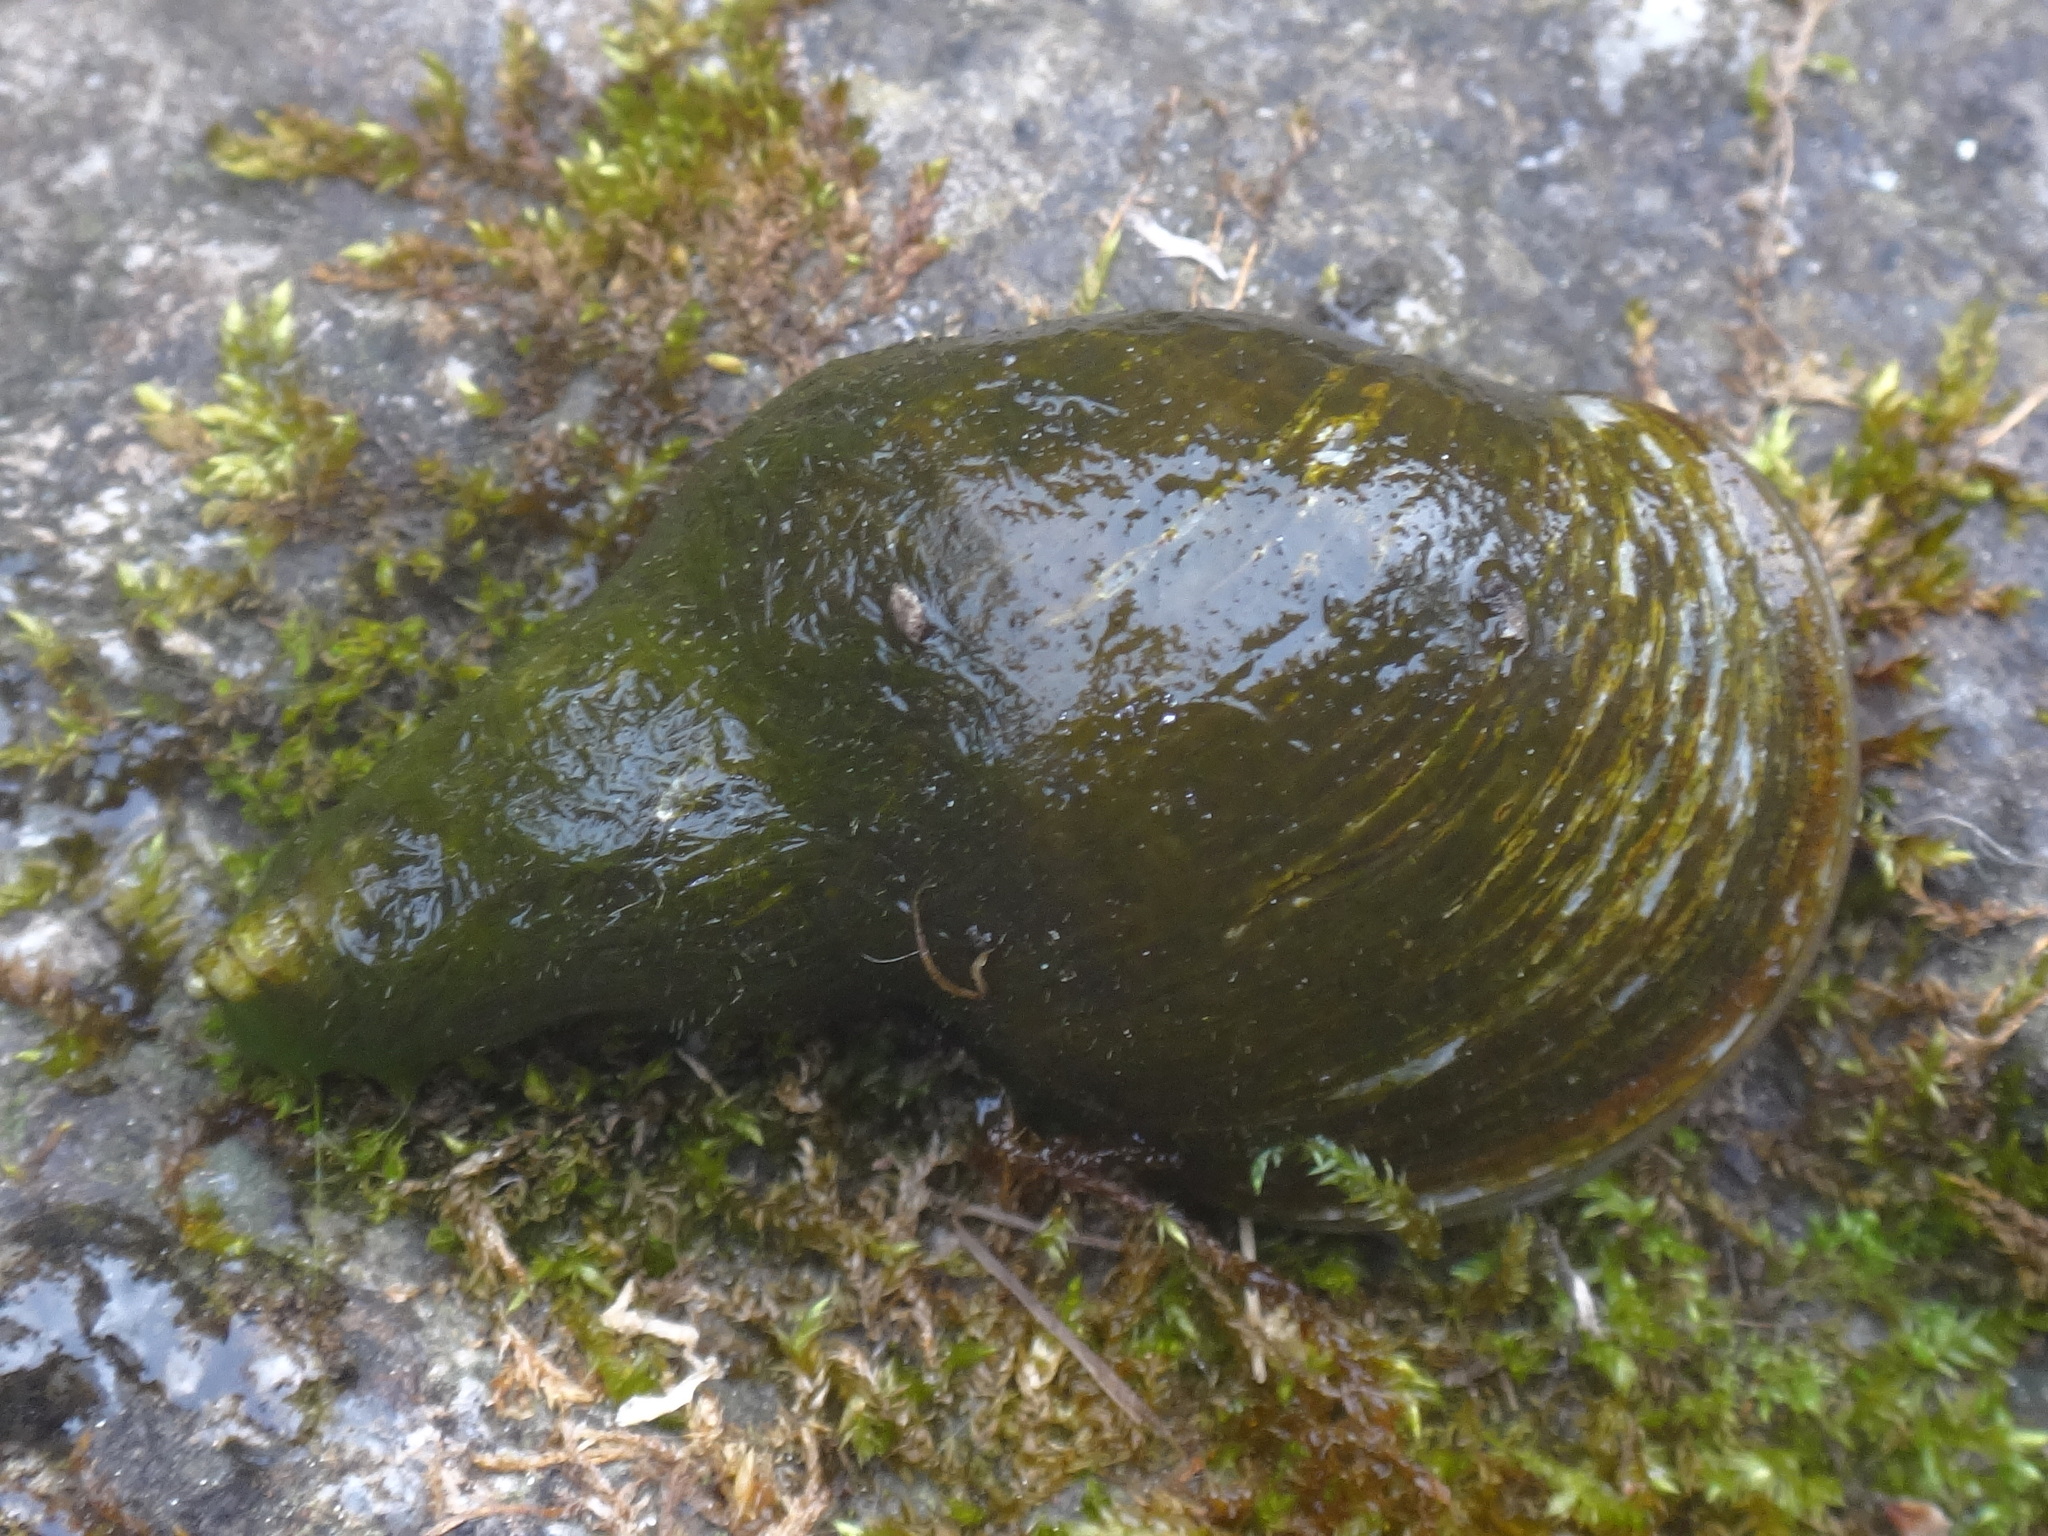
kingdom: Animalia
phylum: Mollusca
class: Gastropoda
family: Lymnaeidae
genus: Lymnaea
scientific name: Lymnaea stagnalis
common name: Great pond snail
